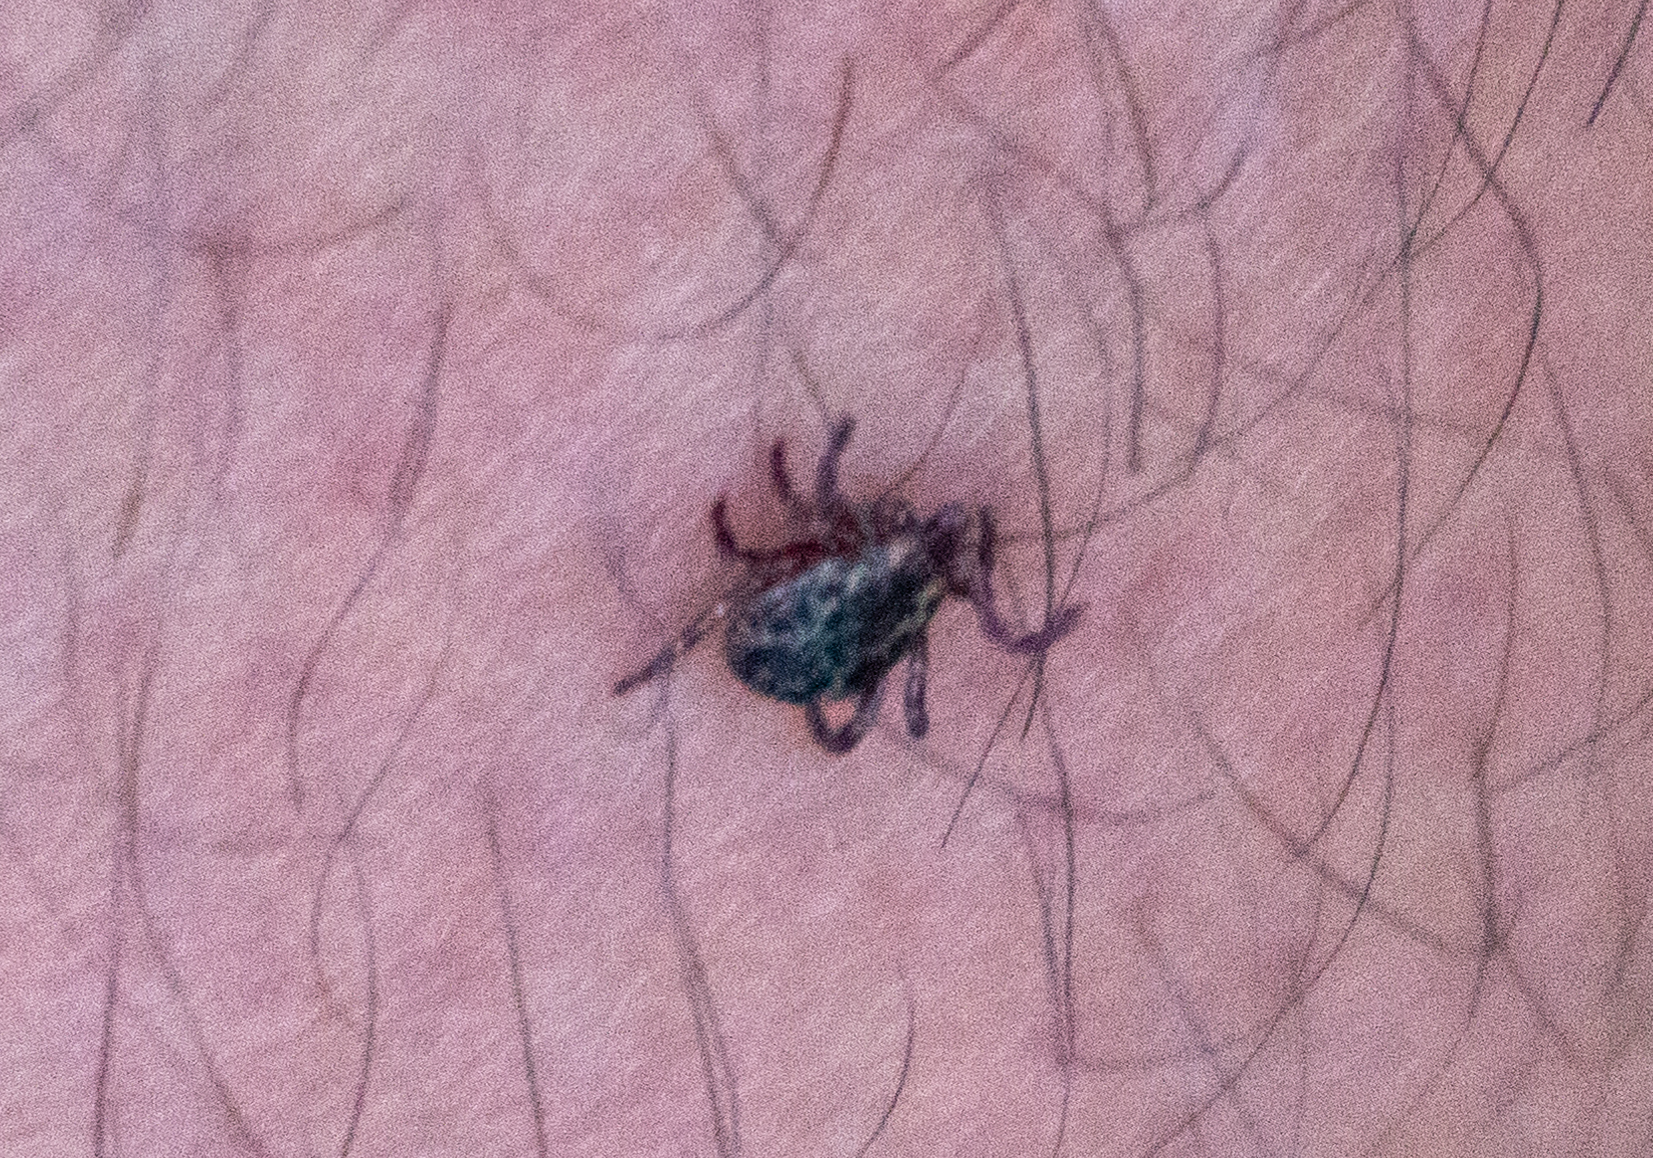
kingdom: Animalia
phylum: Arthropoda
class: Arachnida
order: Ixodida
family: Ixodidae
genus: Dermacentor
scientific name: Dermacentor variabilis
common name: American dog tick
